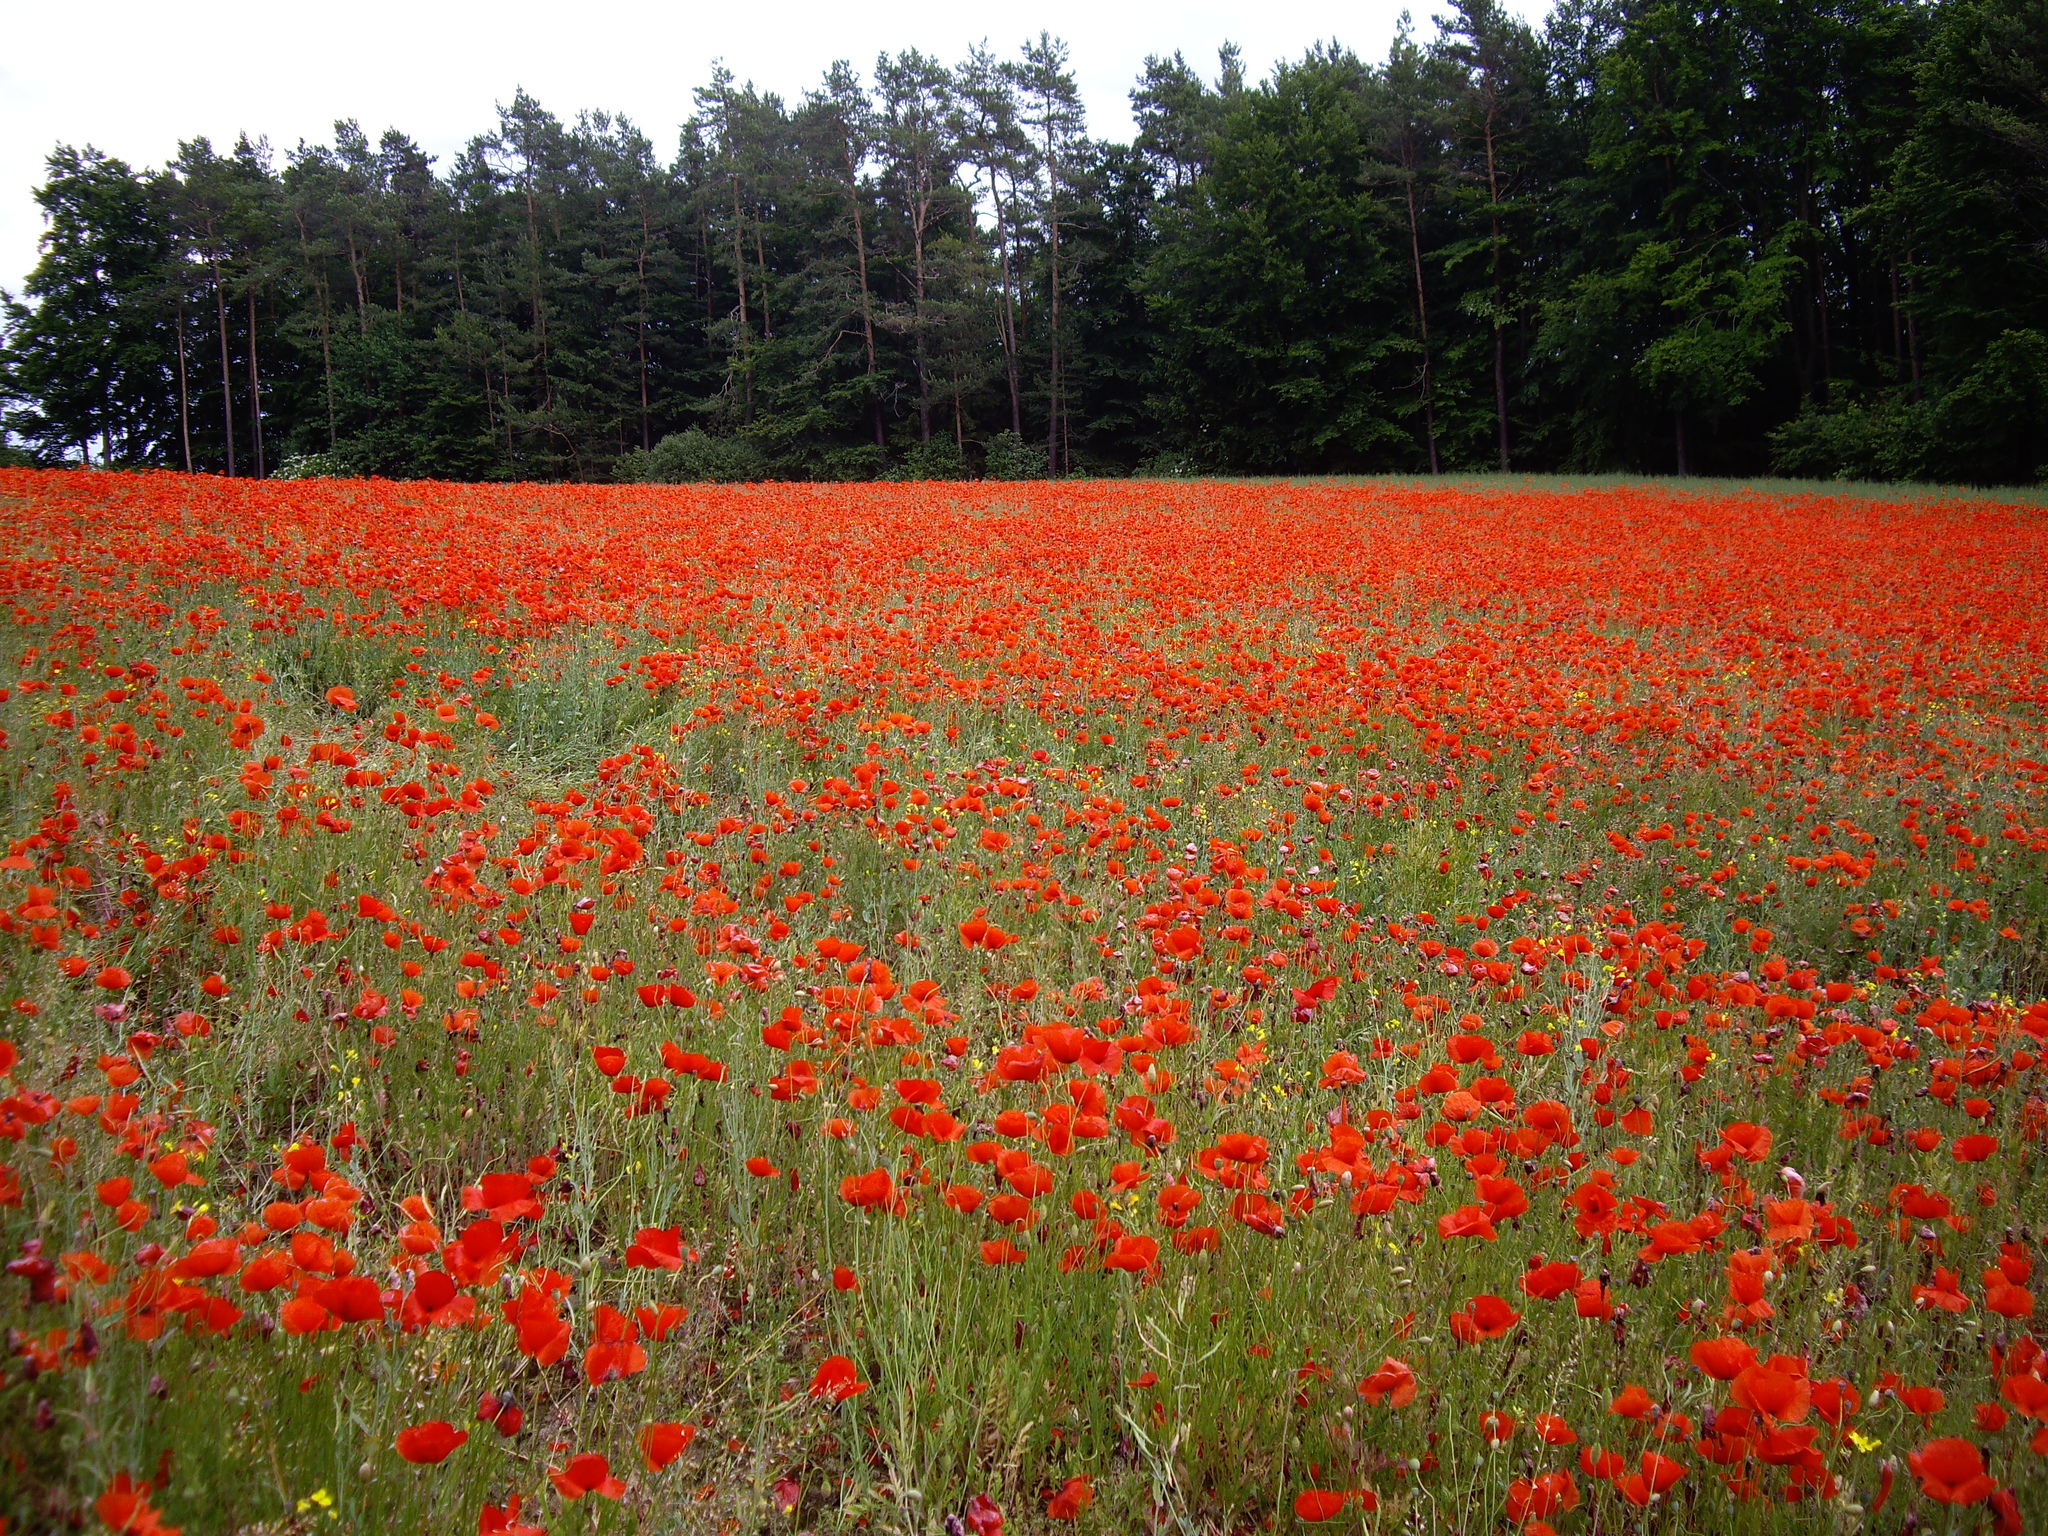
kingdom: Plantae
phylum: Tracheophyta
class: Magnoliopsida
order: Ranunculales
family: Papaveraceae
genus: Papaver
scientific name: Papaver rhoeas
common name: Corn poppy
